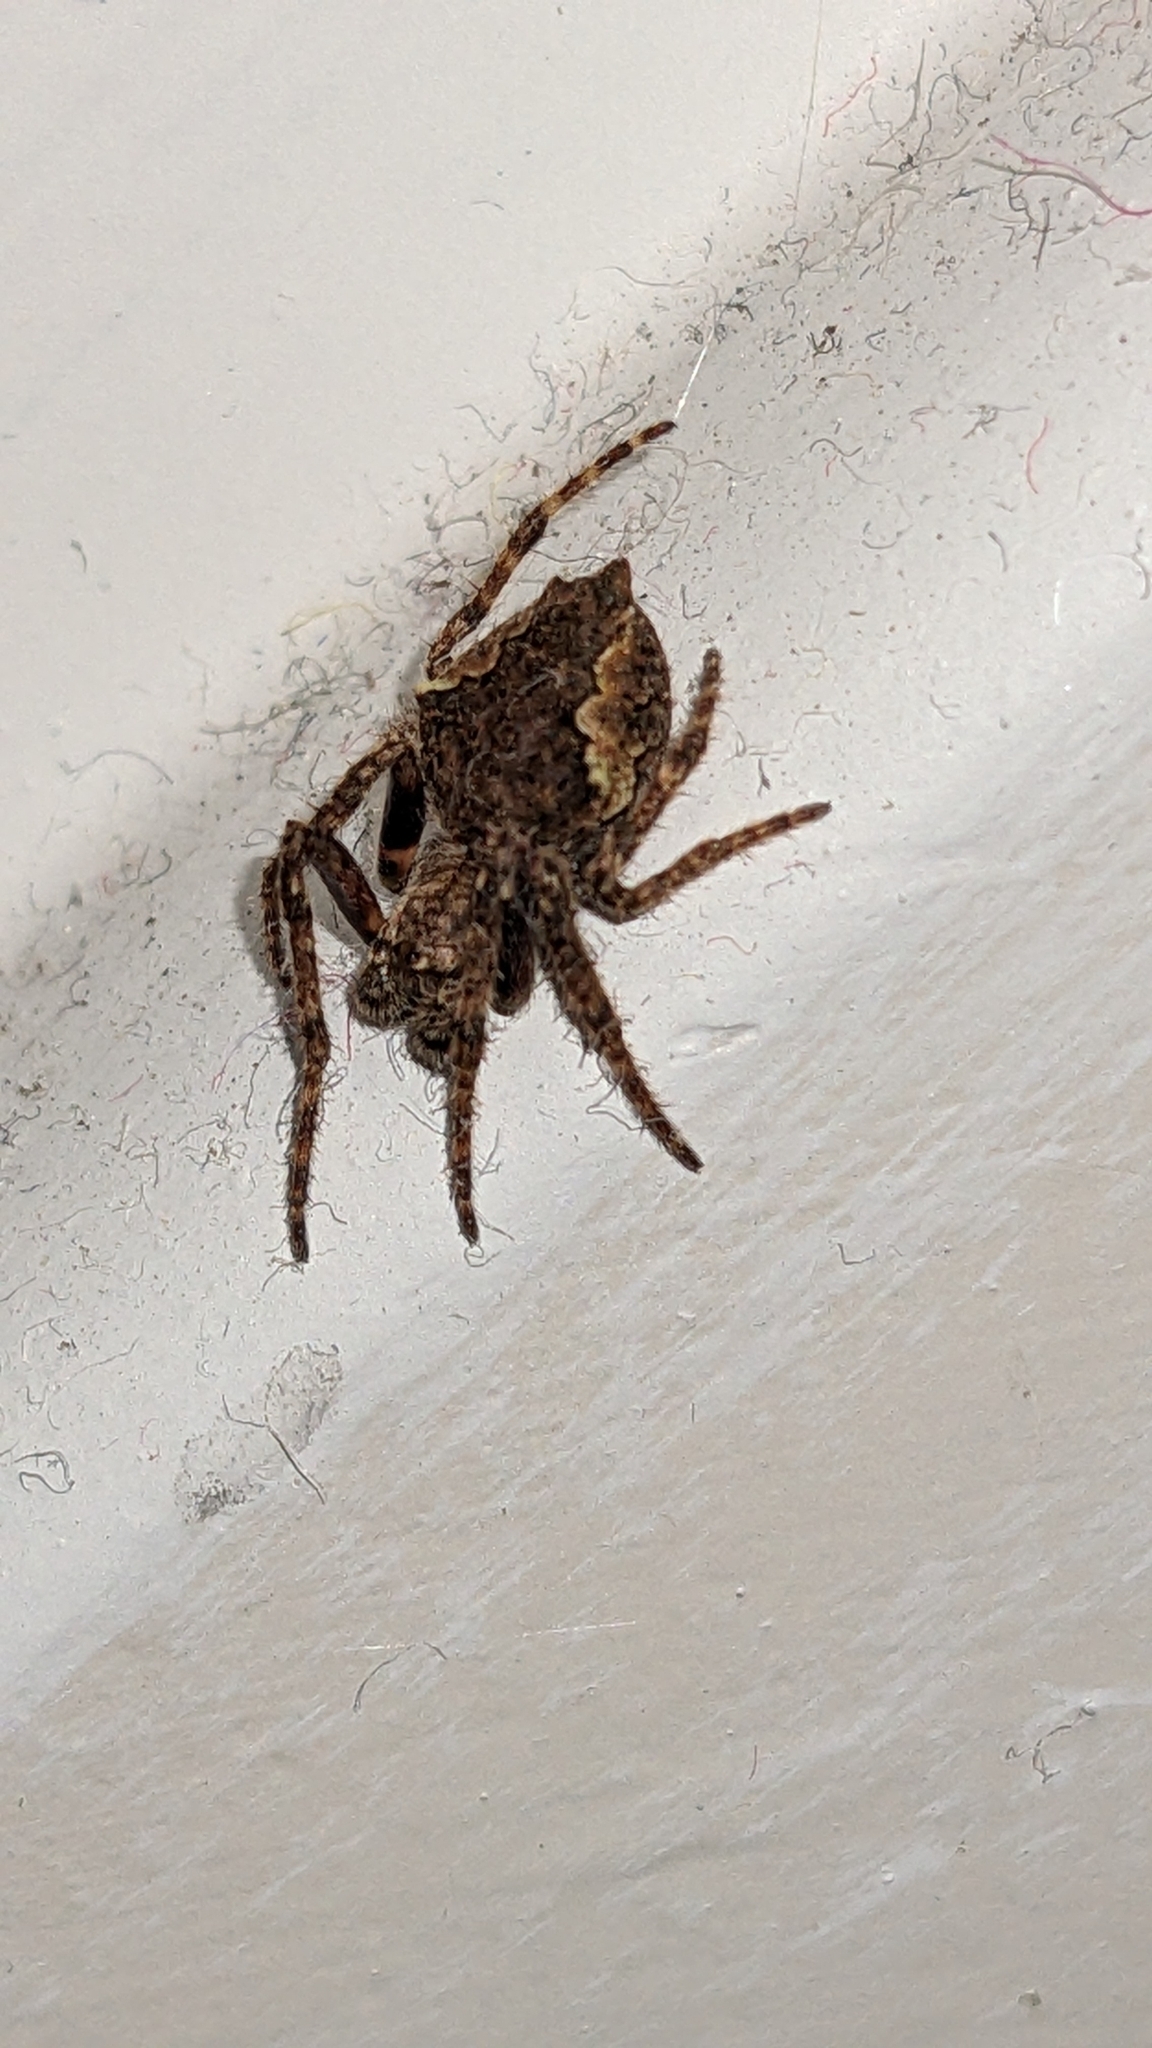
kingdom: Animalia
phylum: Arthropoda
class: Arachnida
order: Araneae
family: Araneidae
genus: Eriophora
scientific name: Eriophora pustulosa
